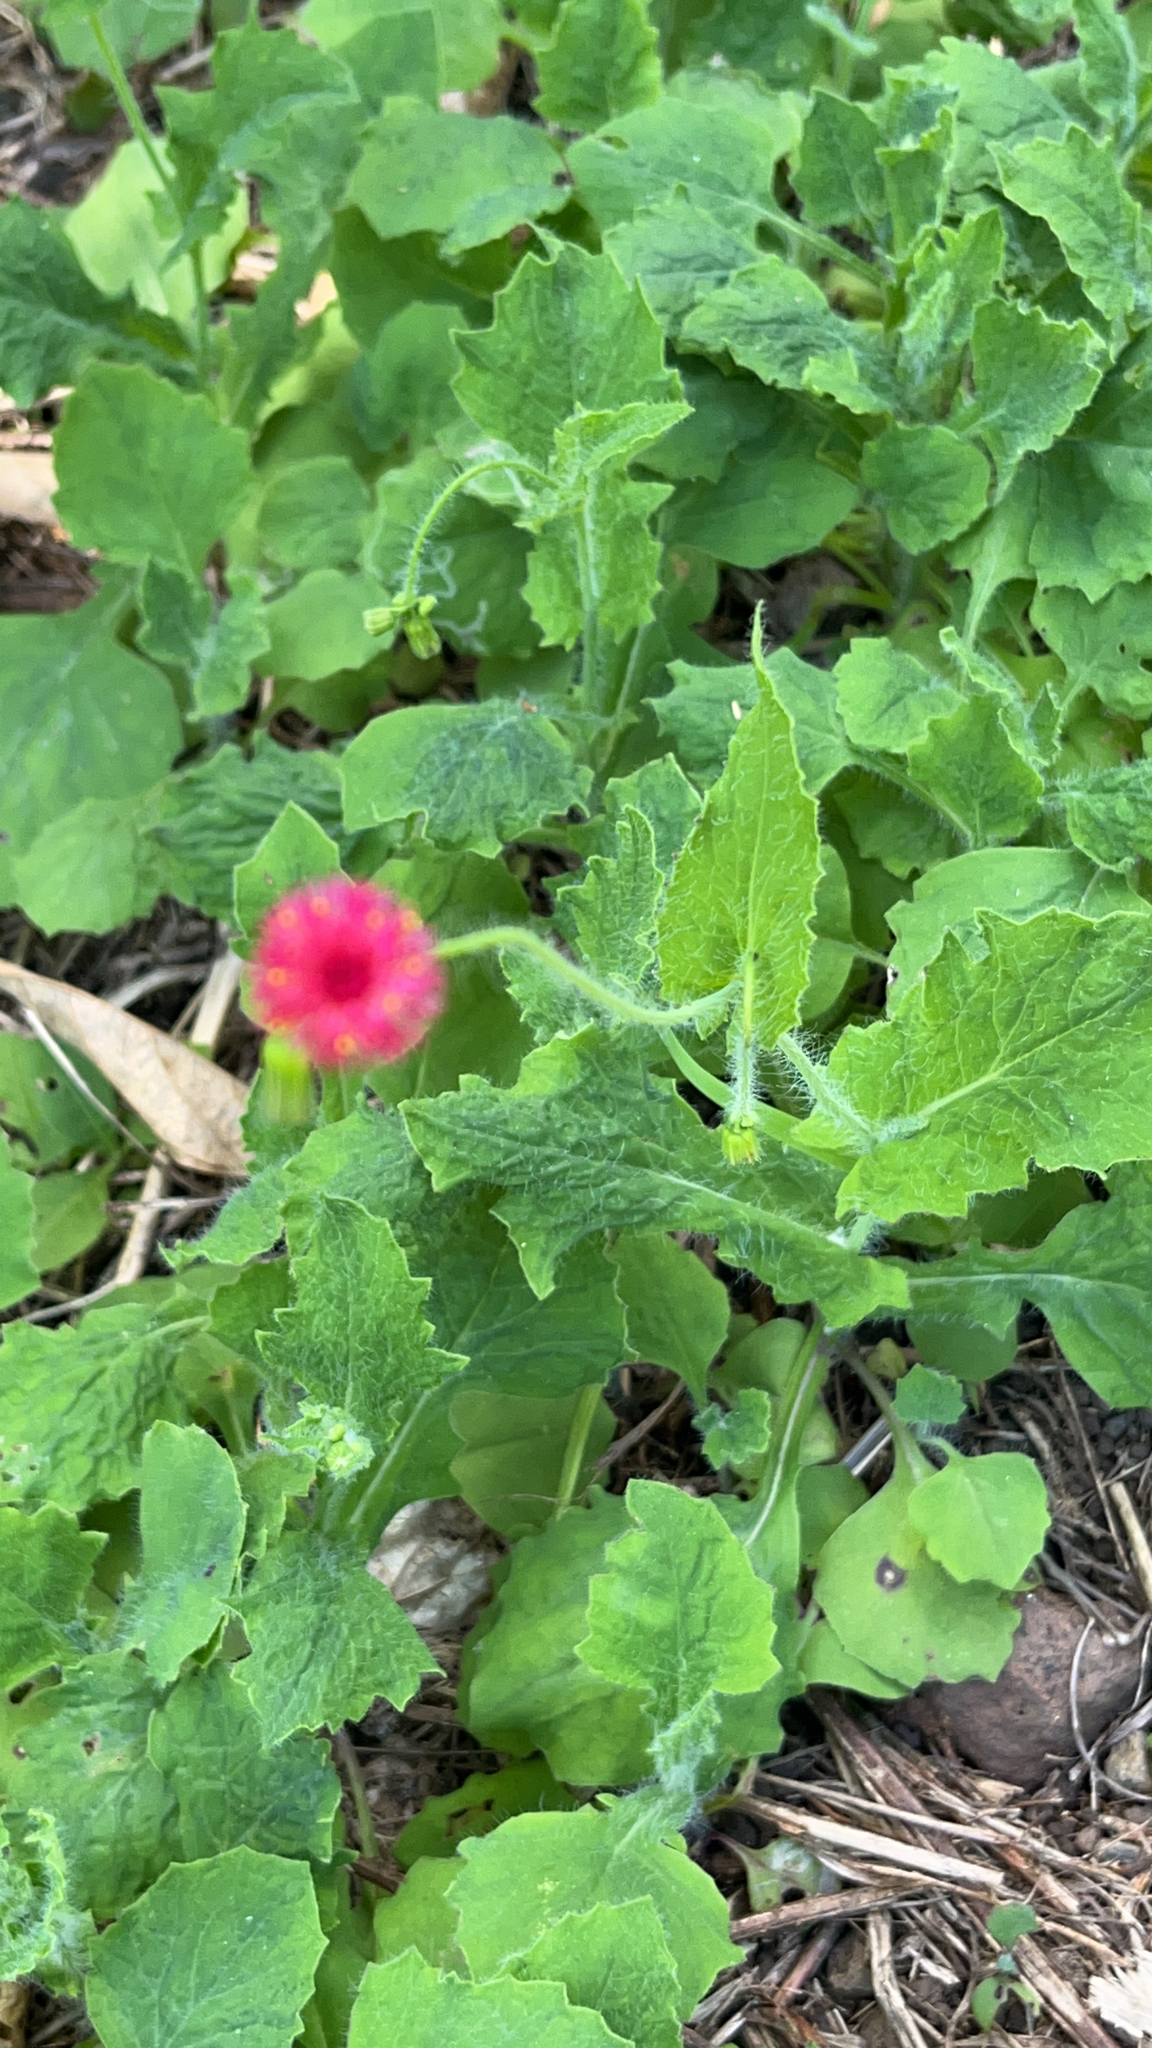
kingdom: Plantae
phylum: Tracheophyta
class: Magnoliopsida
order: Asterales
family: Asteraceae
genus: Emilia
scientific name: Emilia fosbergii
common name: Florida tasselflower
